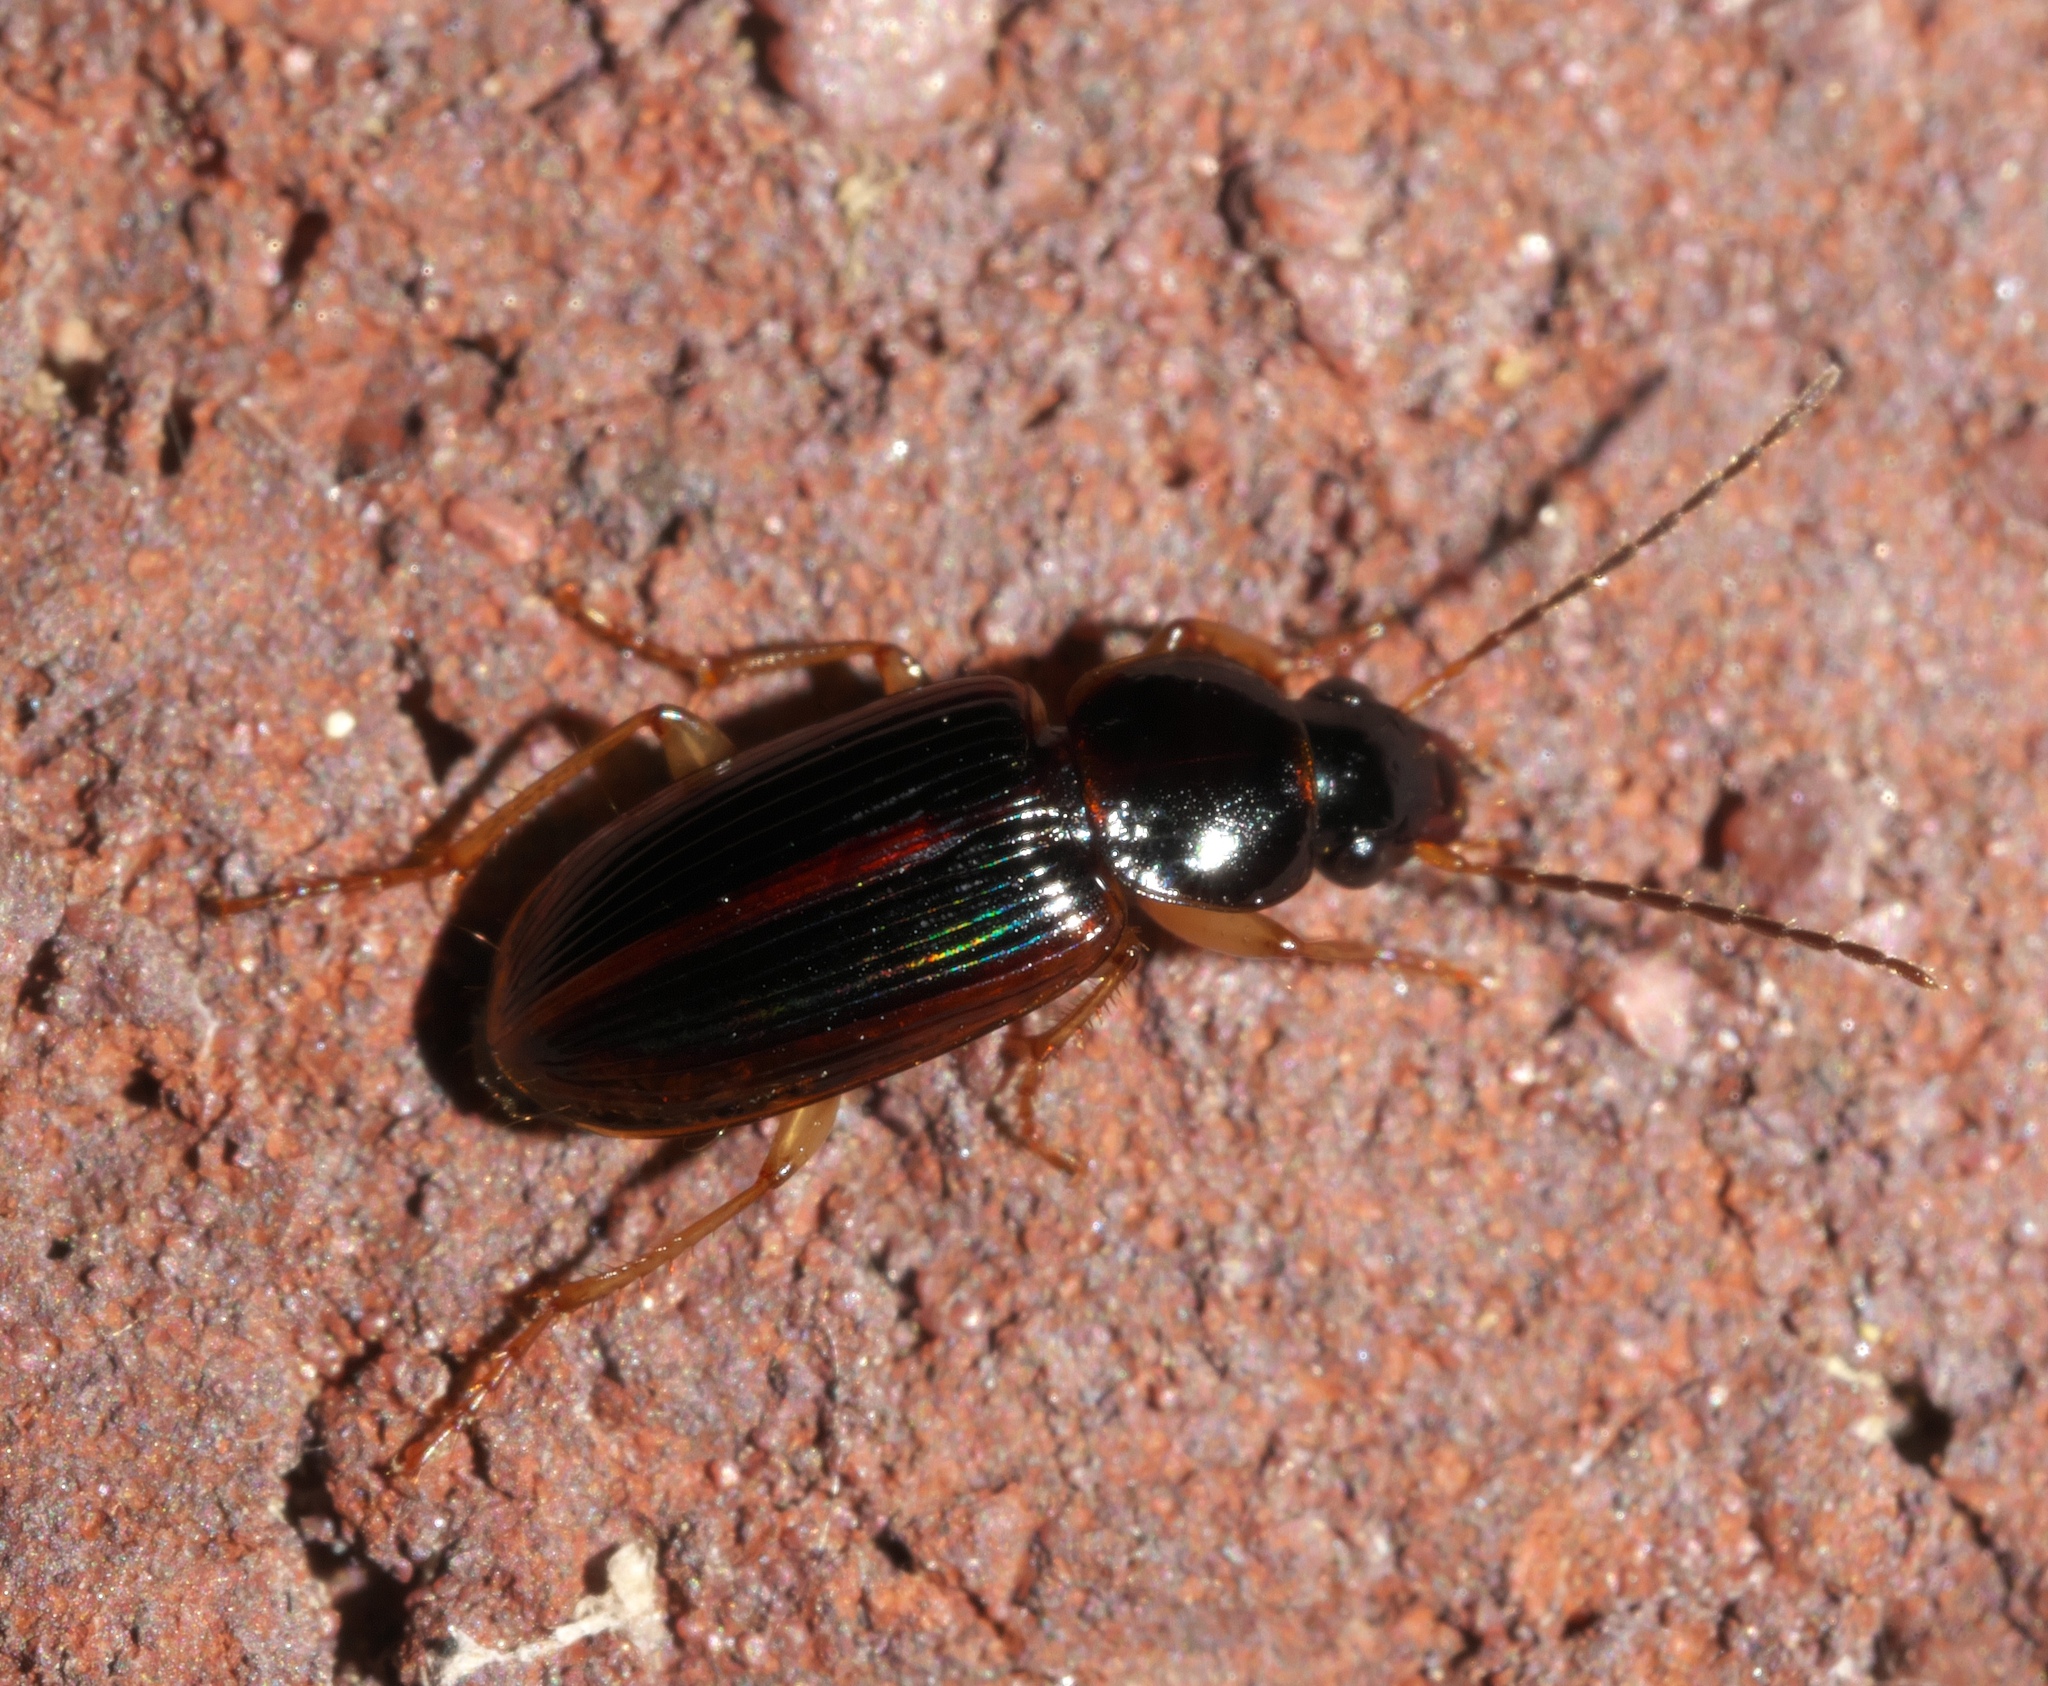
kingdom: Animalia
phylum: Arthropoda
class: Insecta
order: Coleoptera
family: Carabidae
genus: Stenolophus
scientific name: Stenolophus ochropezus
